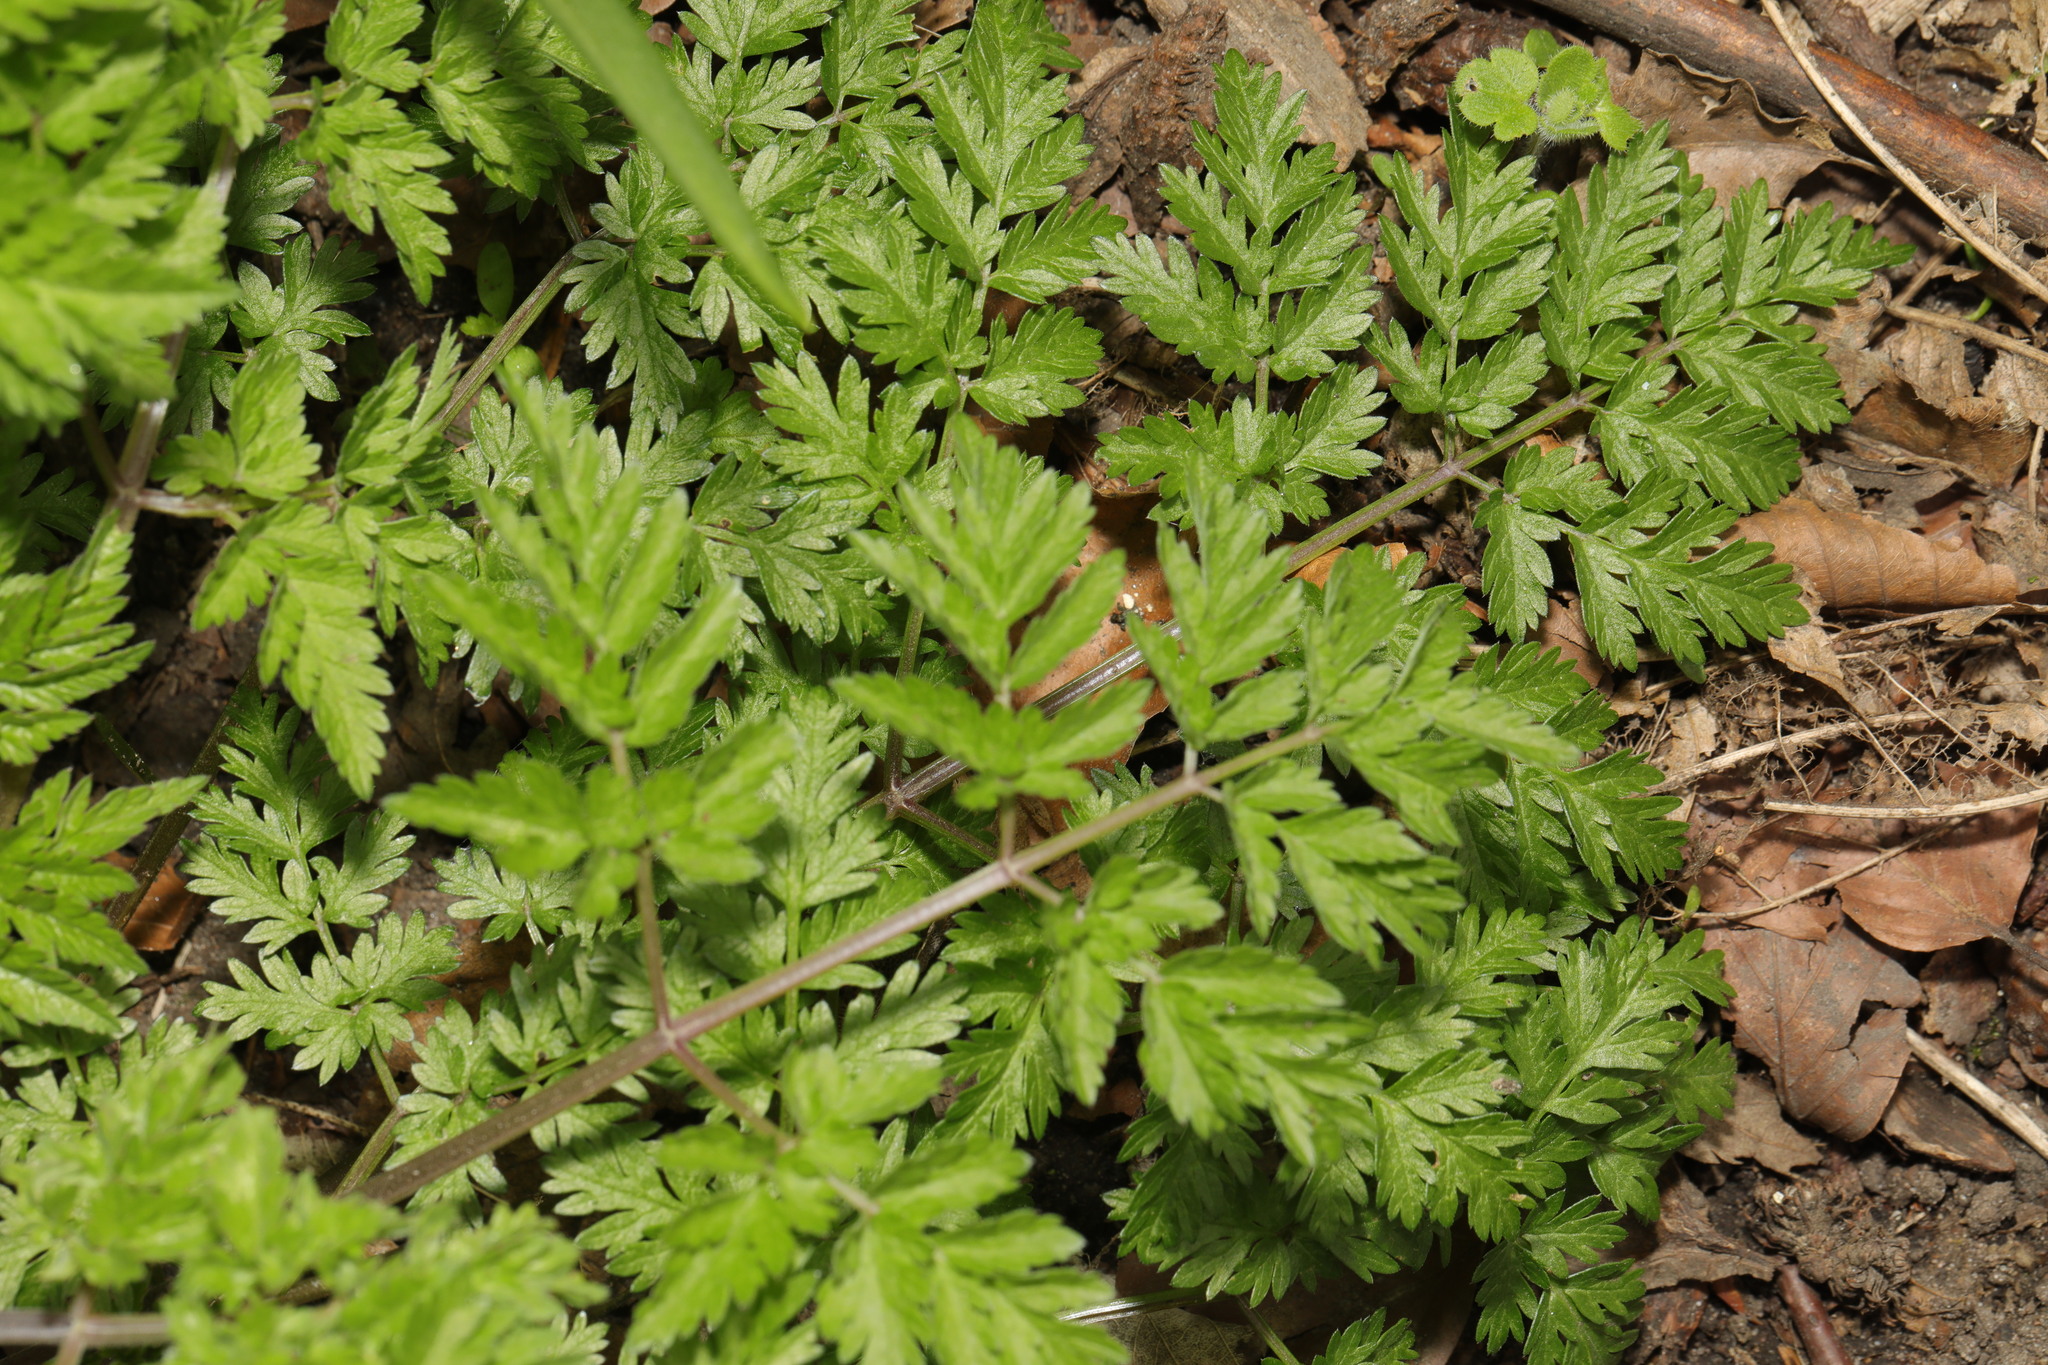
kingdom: Plantae
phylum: Tracheophyta
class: Magnoliopsida
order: Apiales
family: Apiaceae
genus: Anthriscus
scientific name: Anthriscus sylvestris
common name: Cow parsley
